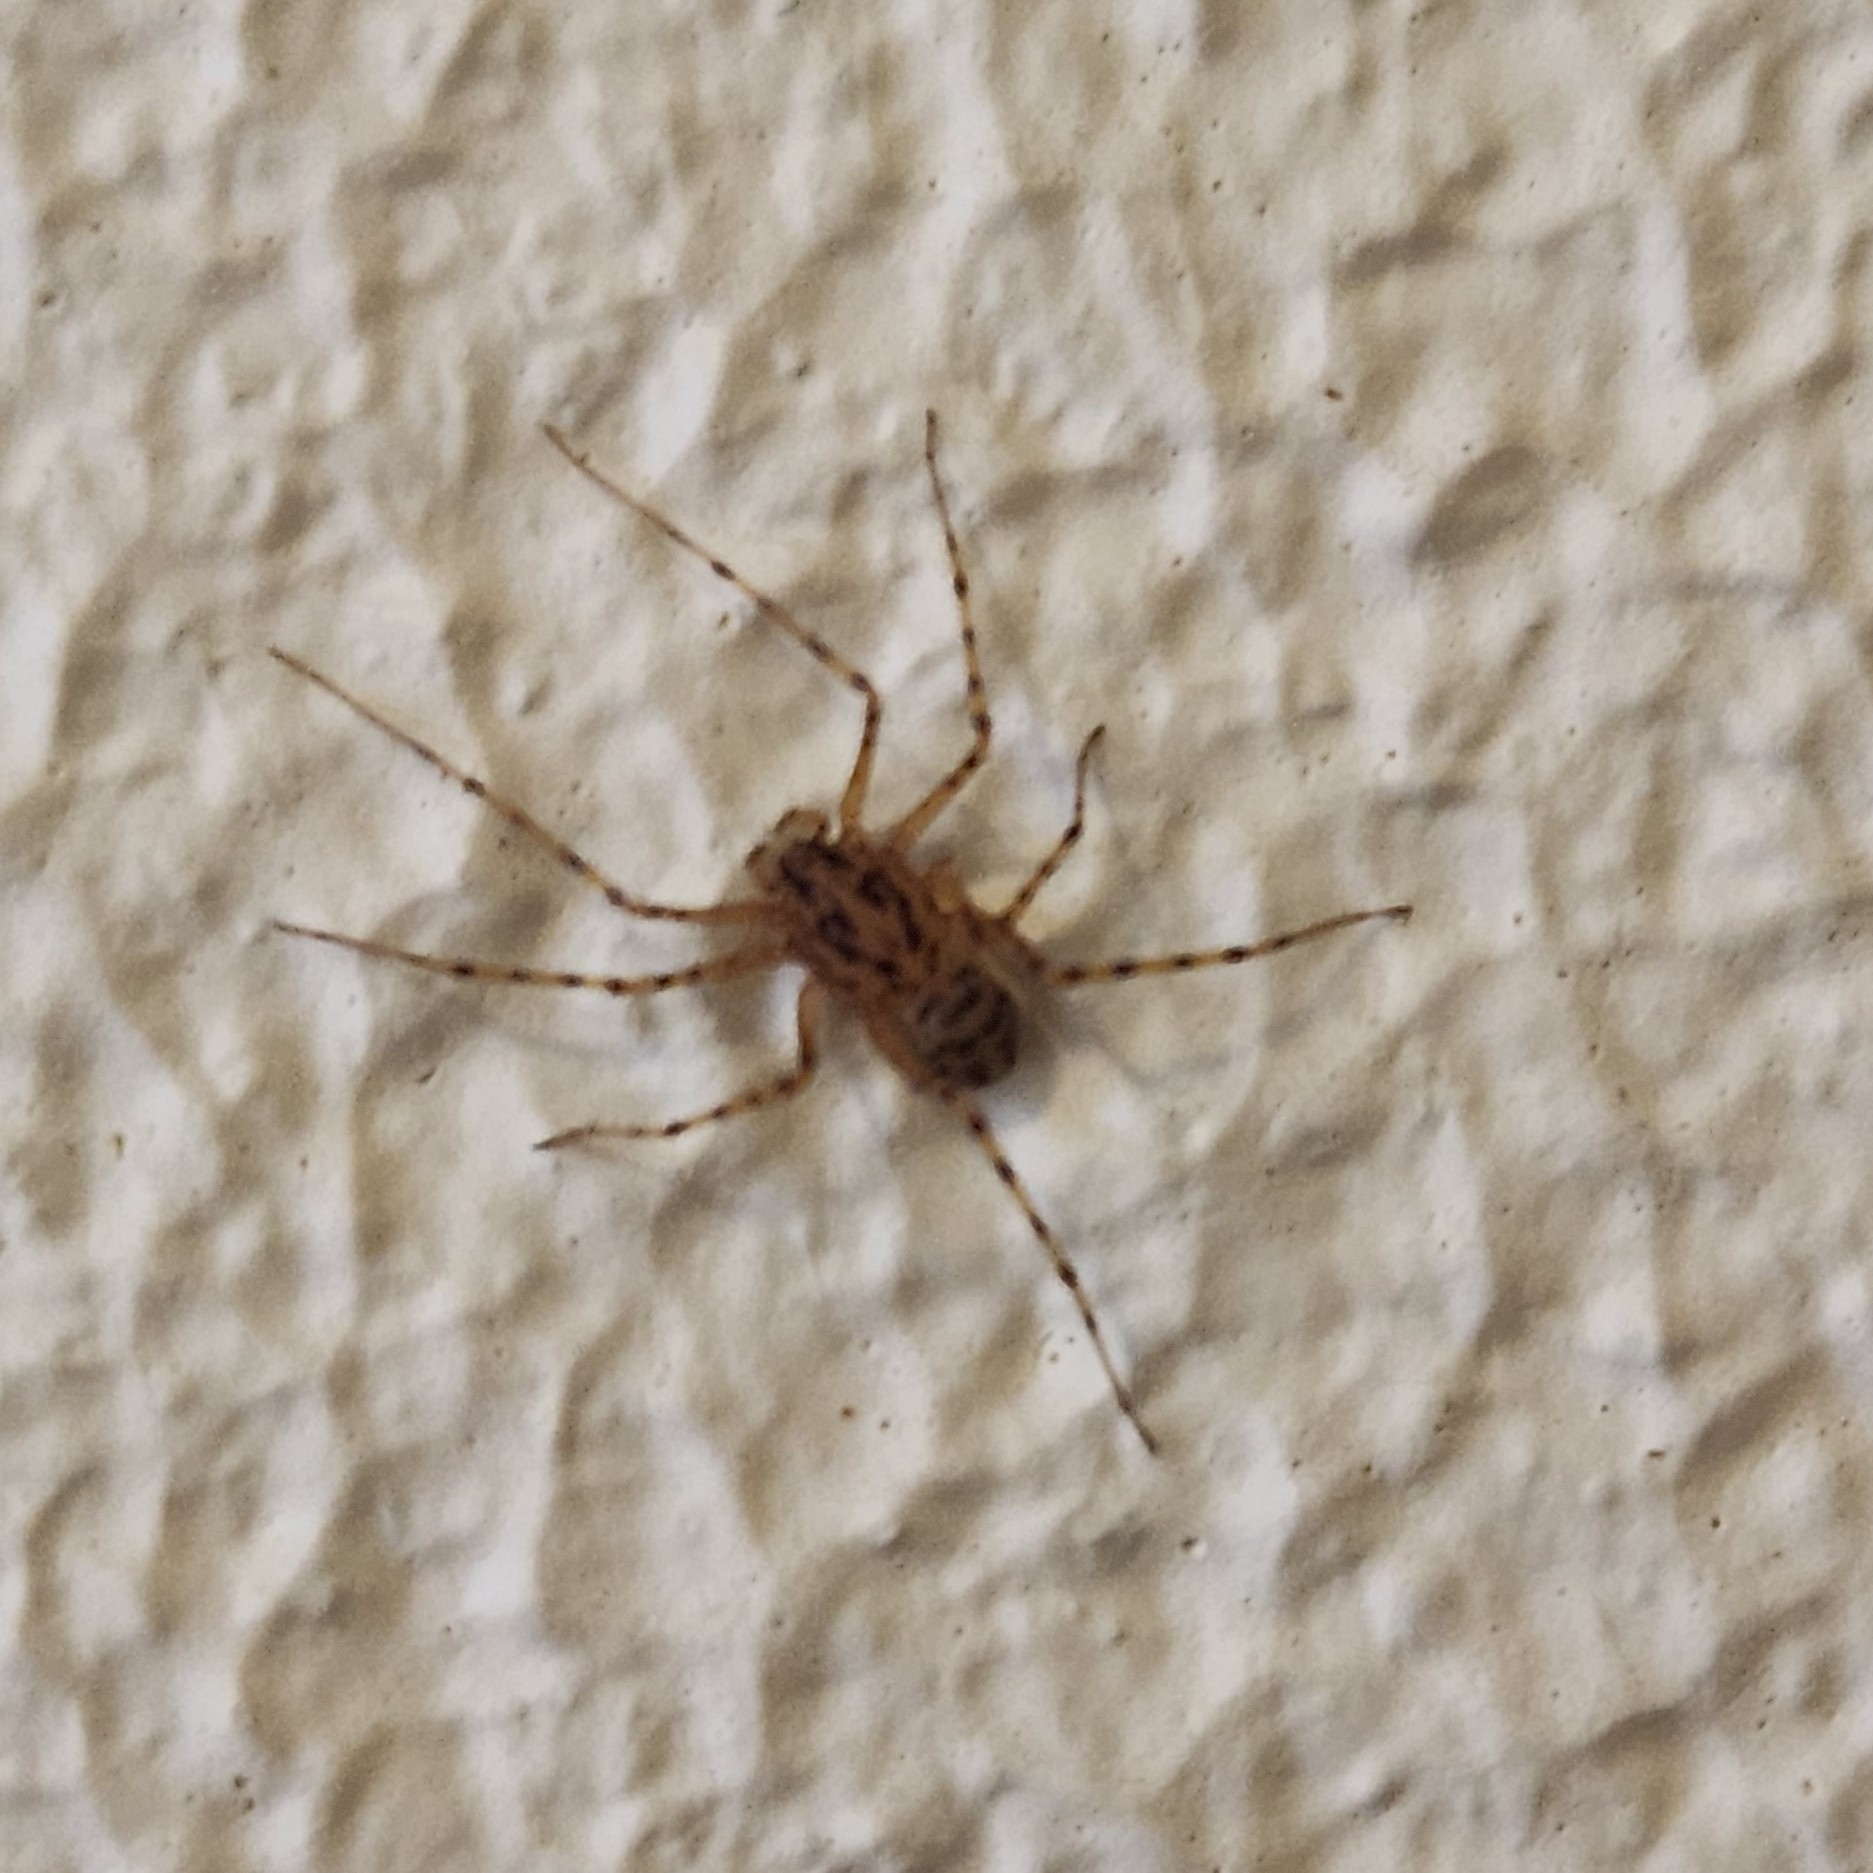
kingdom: Animalia
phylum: Arthropoda
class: Arachnida
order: Araneae
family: Scytodidae
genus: Scytodes
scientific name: Scytodes thoracica
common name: Spitting spider
